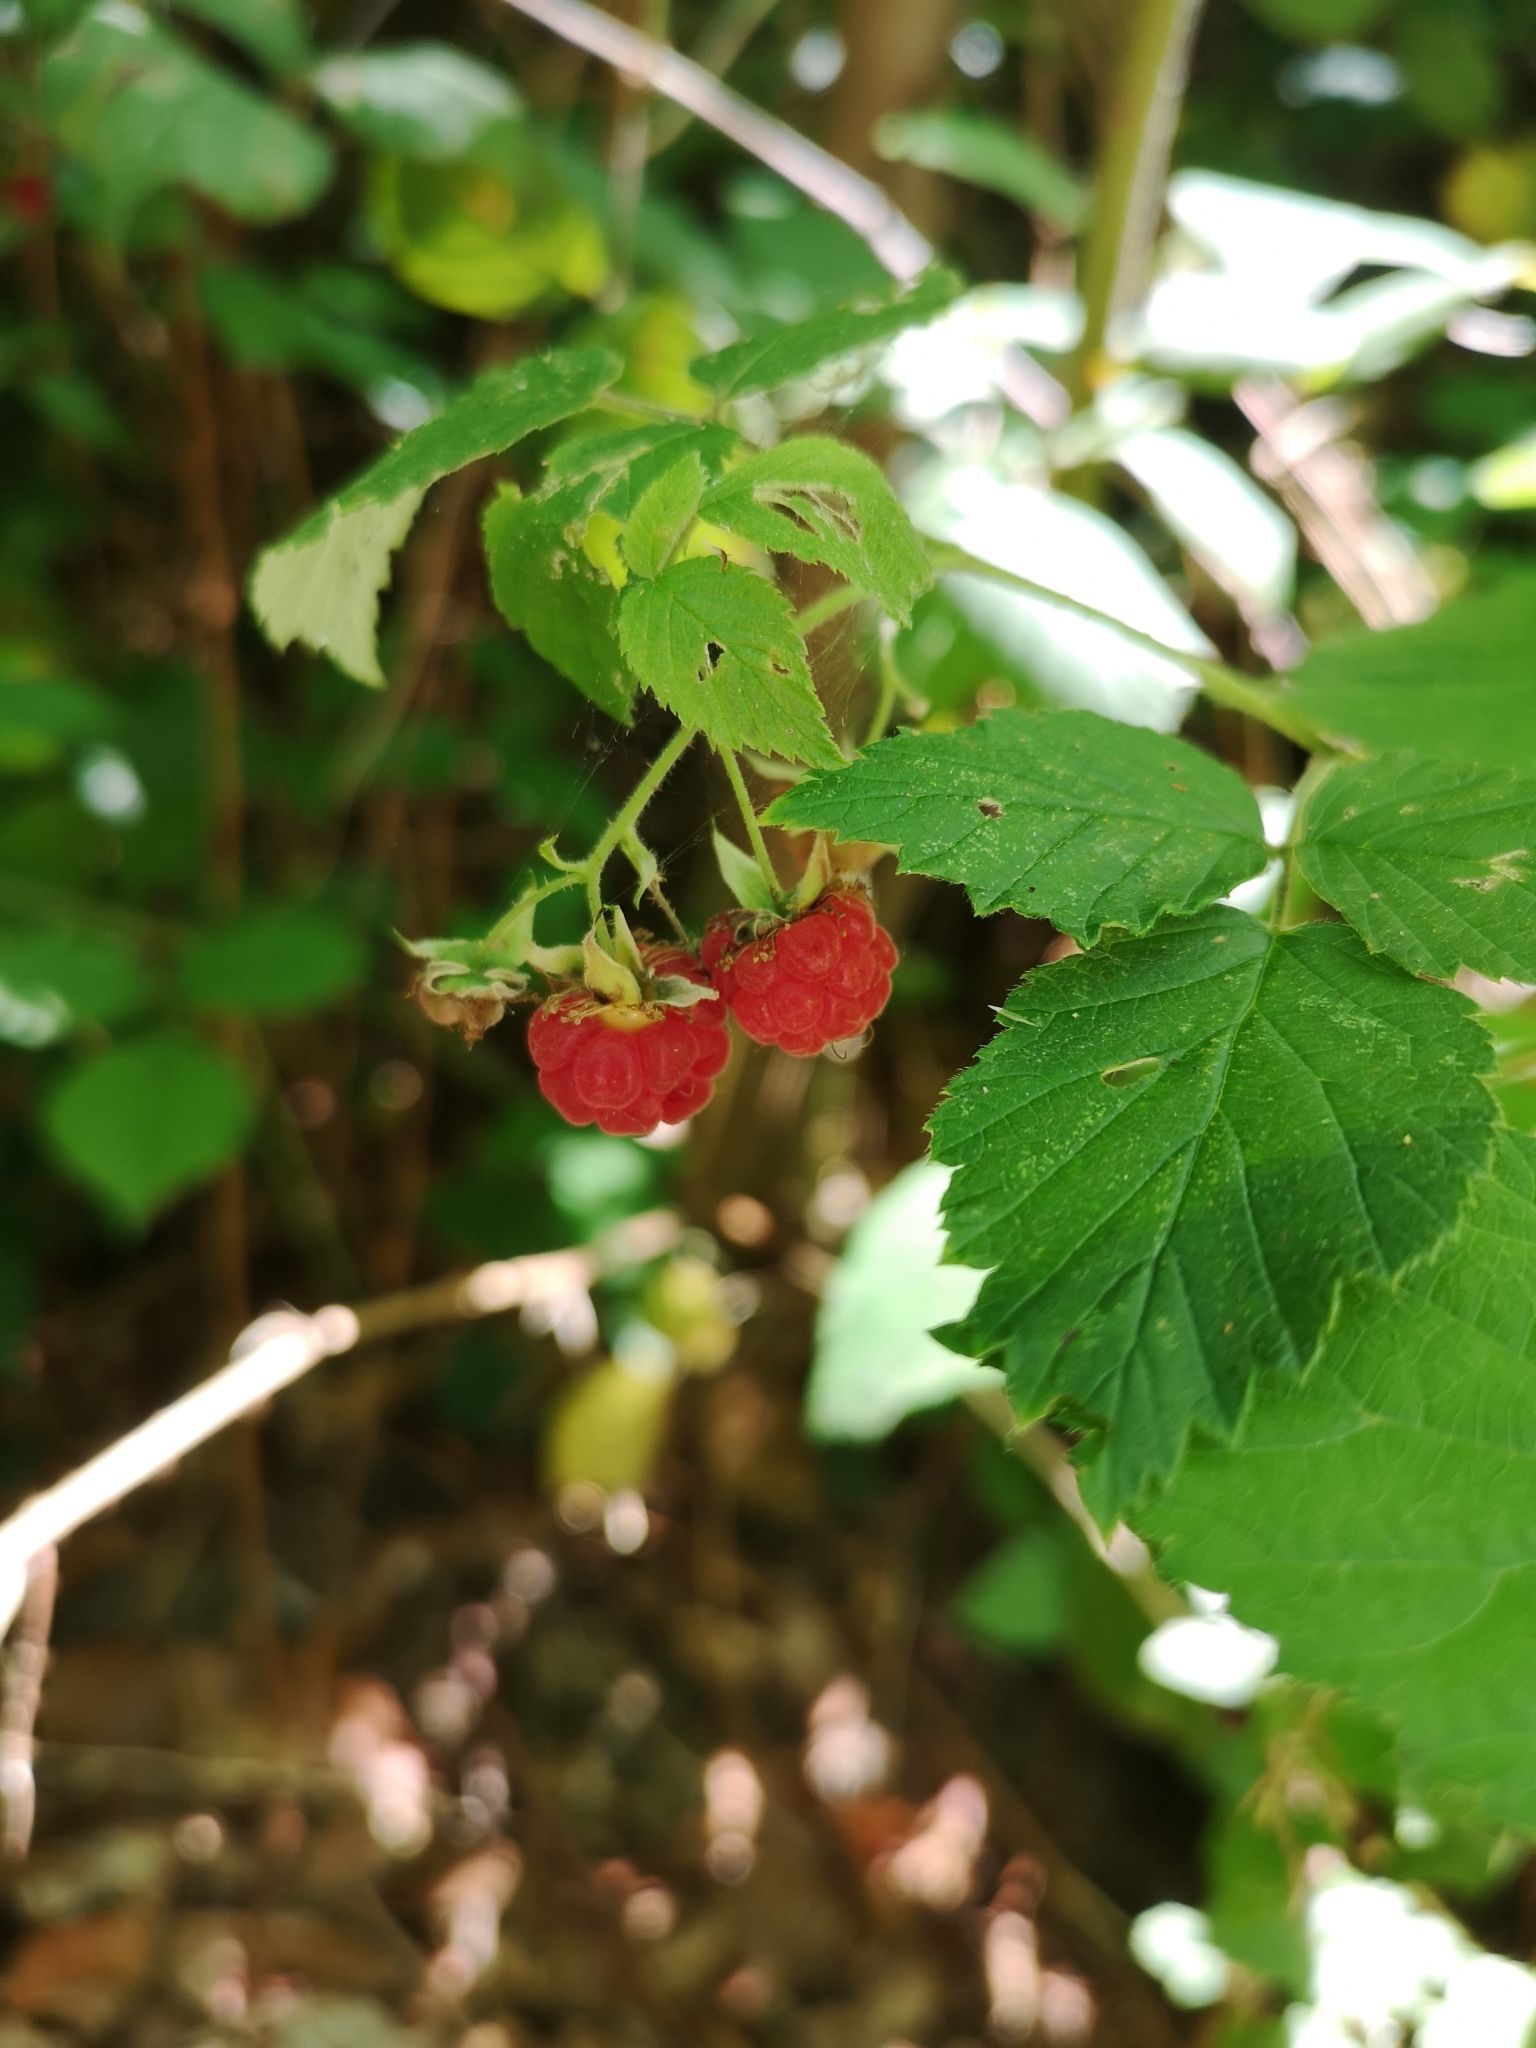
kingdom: Plantae
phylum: Tracheophyta
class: Magnoliopsida
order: Rosales
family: Rosaceae
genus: Rubus
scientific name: Rubus idaeus
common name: Raspberry
